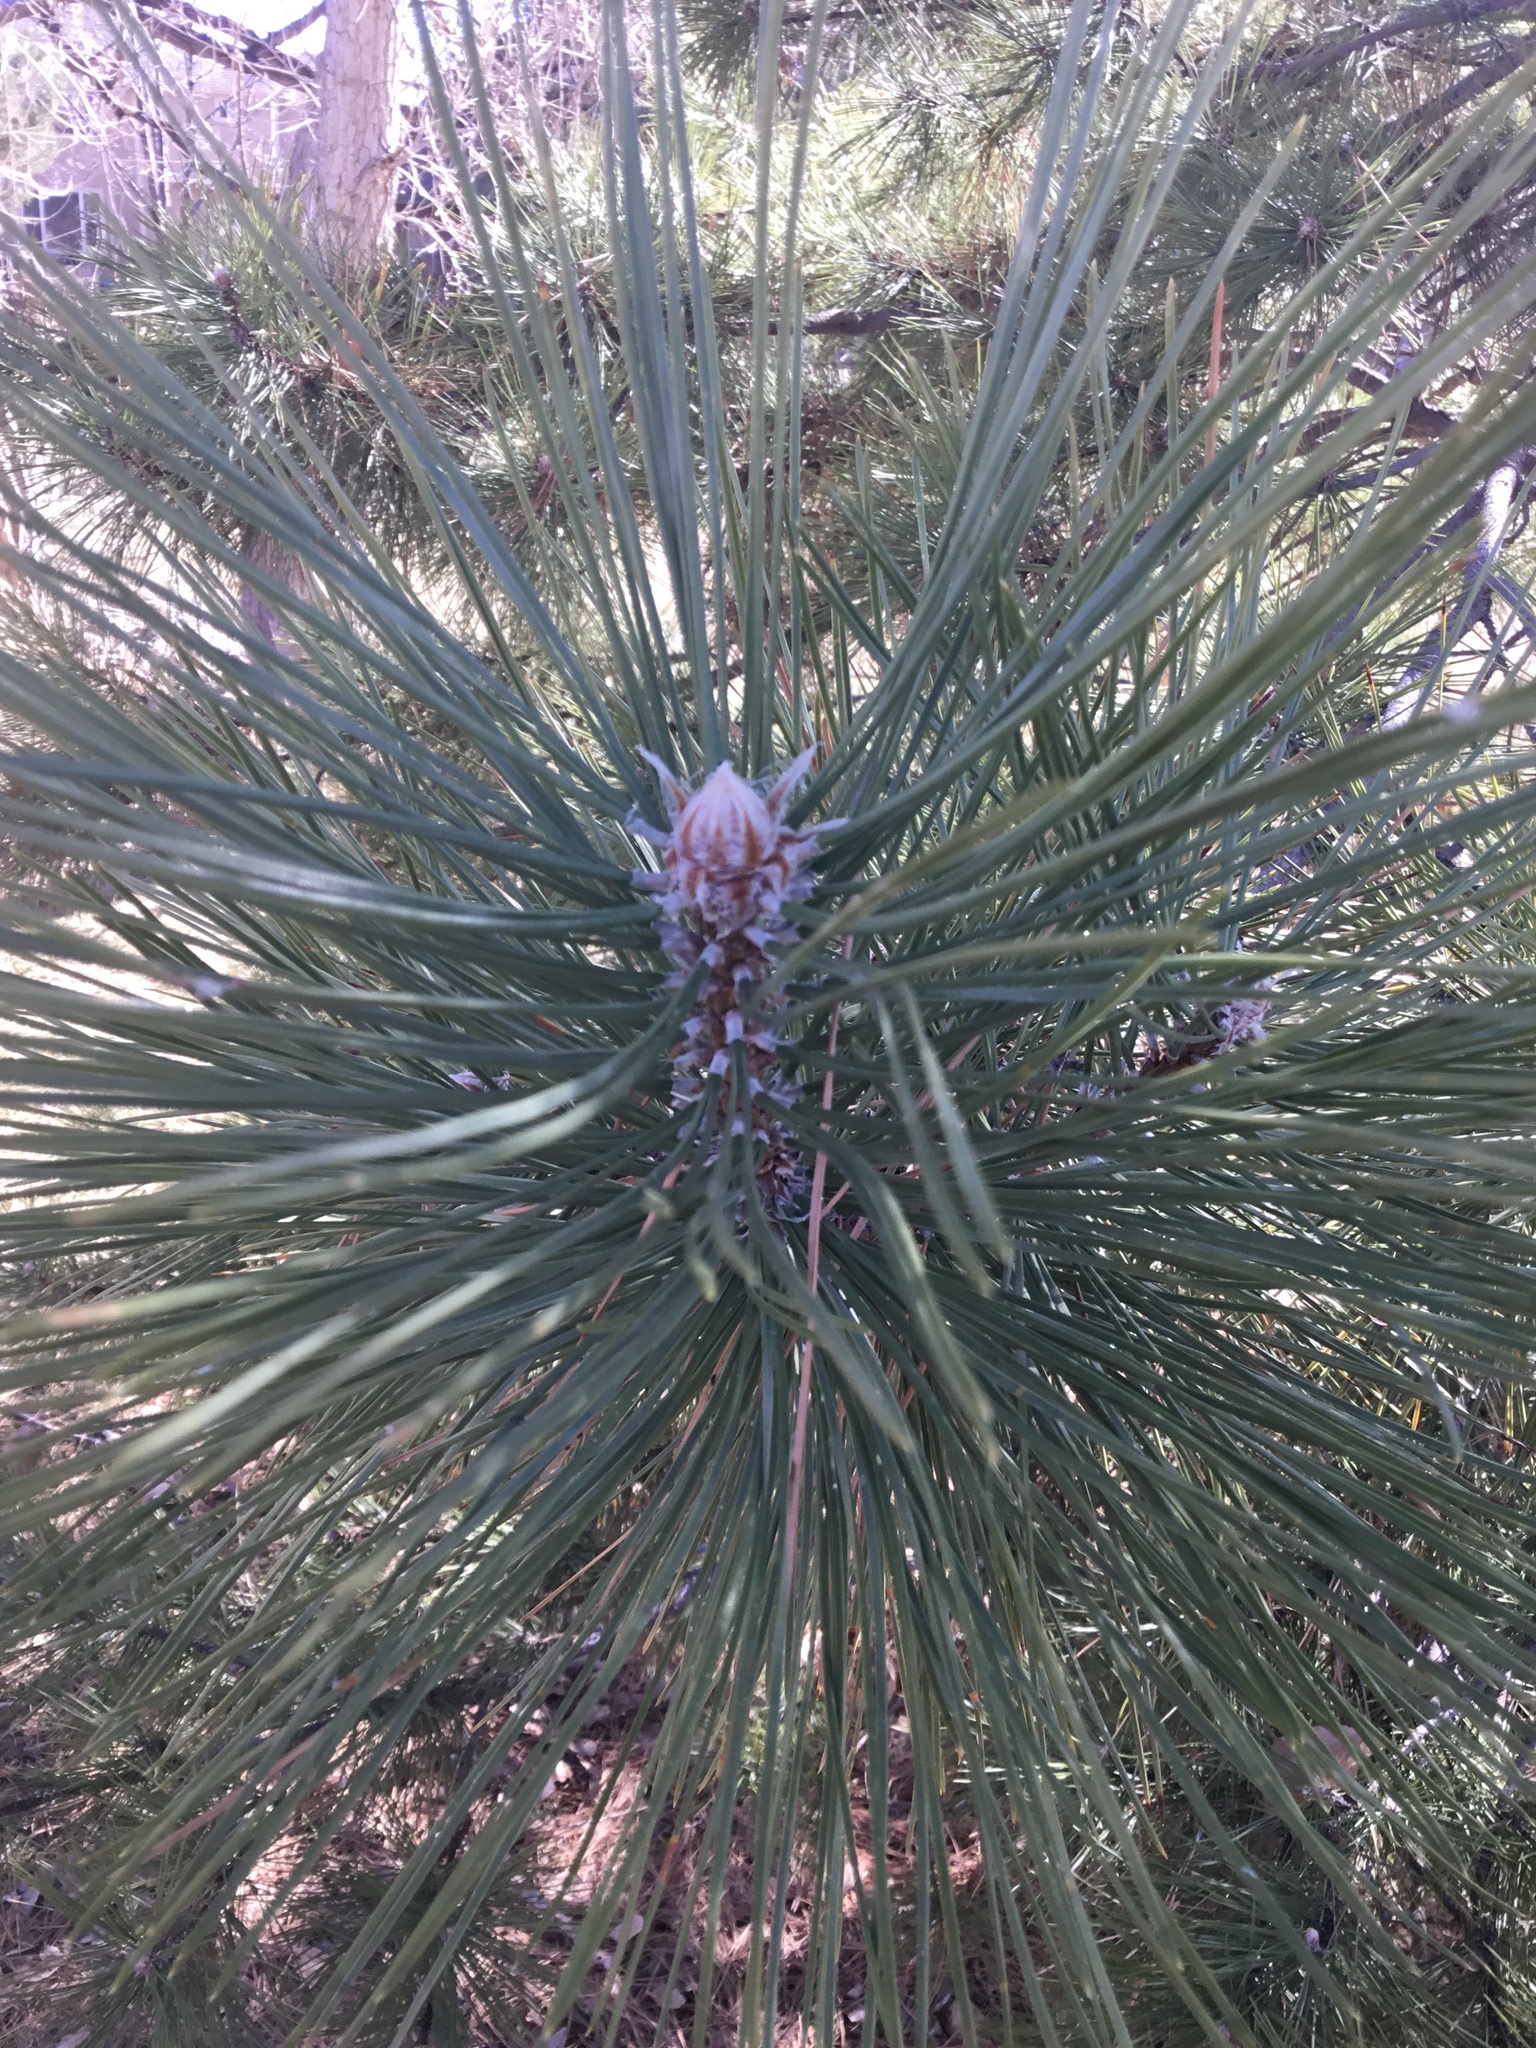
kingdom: Plantae
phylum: Tracheophyta
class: Pinopsida
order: Pinales
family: Pinaceae
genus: Pinus
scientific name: Pinus ponderosa
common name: Western yellow-pine
